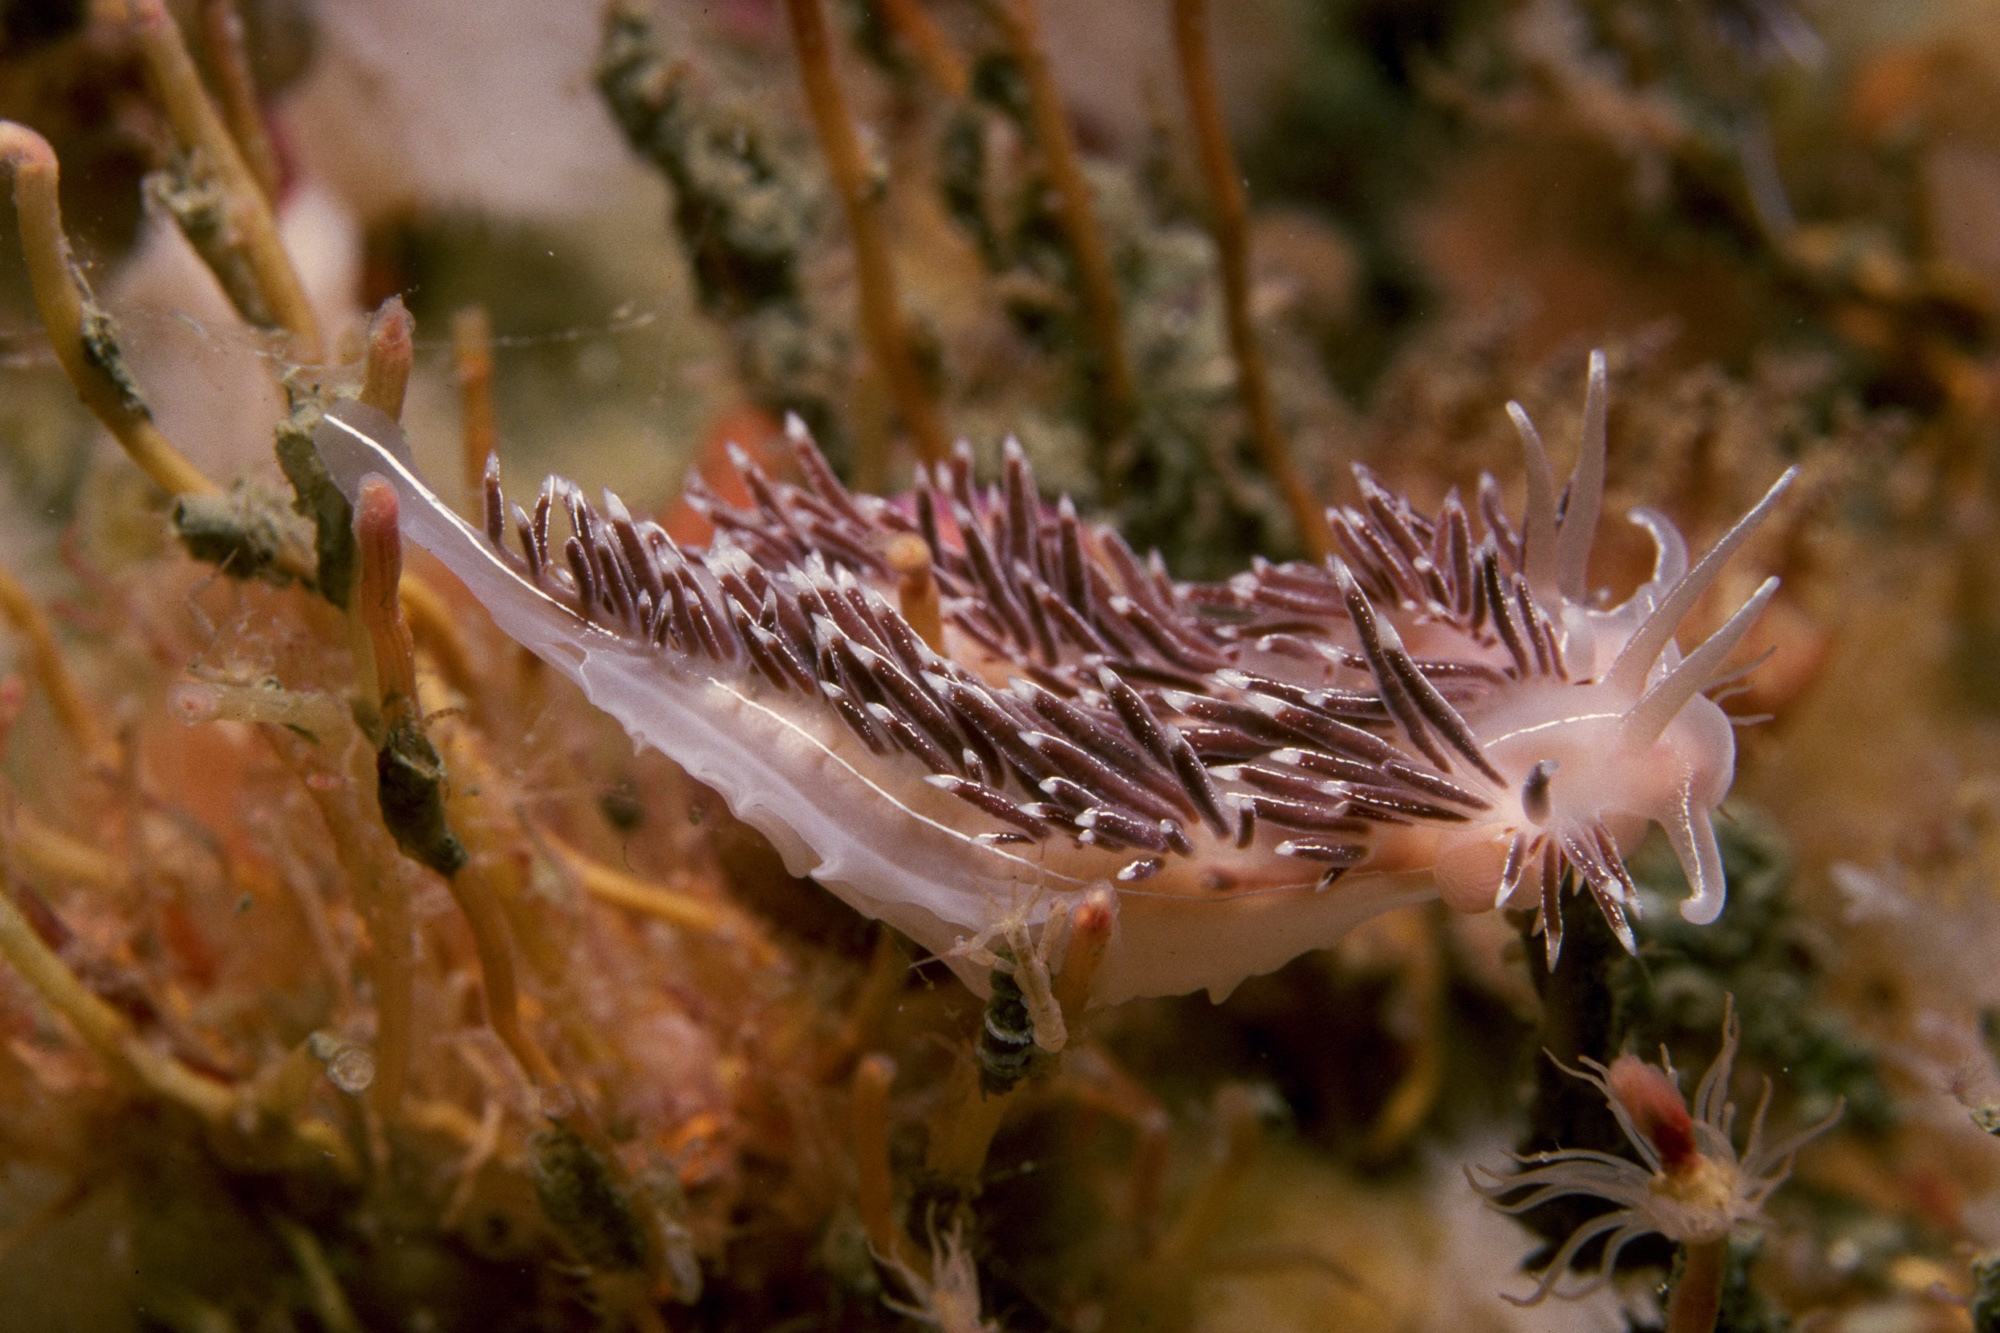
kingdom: Animalia
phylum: Mollusca
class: Gastropoda
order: Nudibranchia
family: Coryphellidae
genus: Coryphella
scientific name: Coryphella chriskaugei
